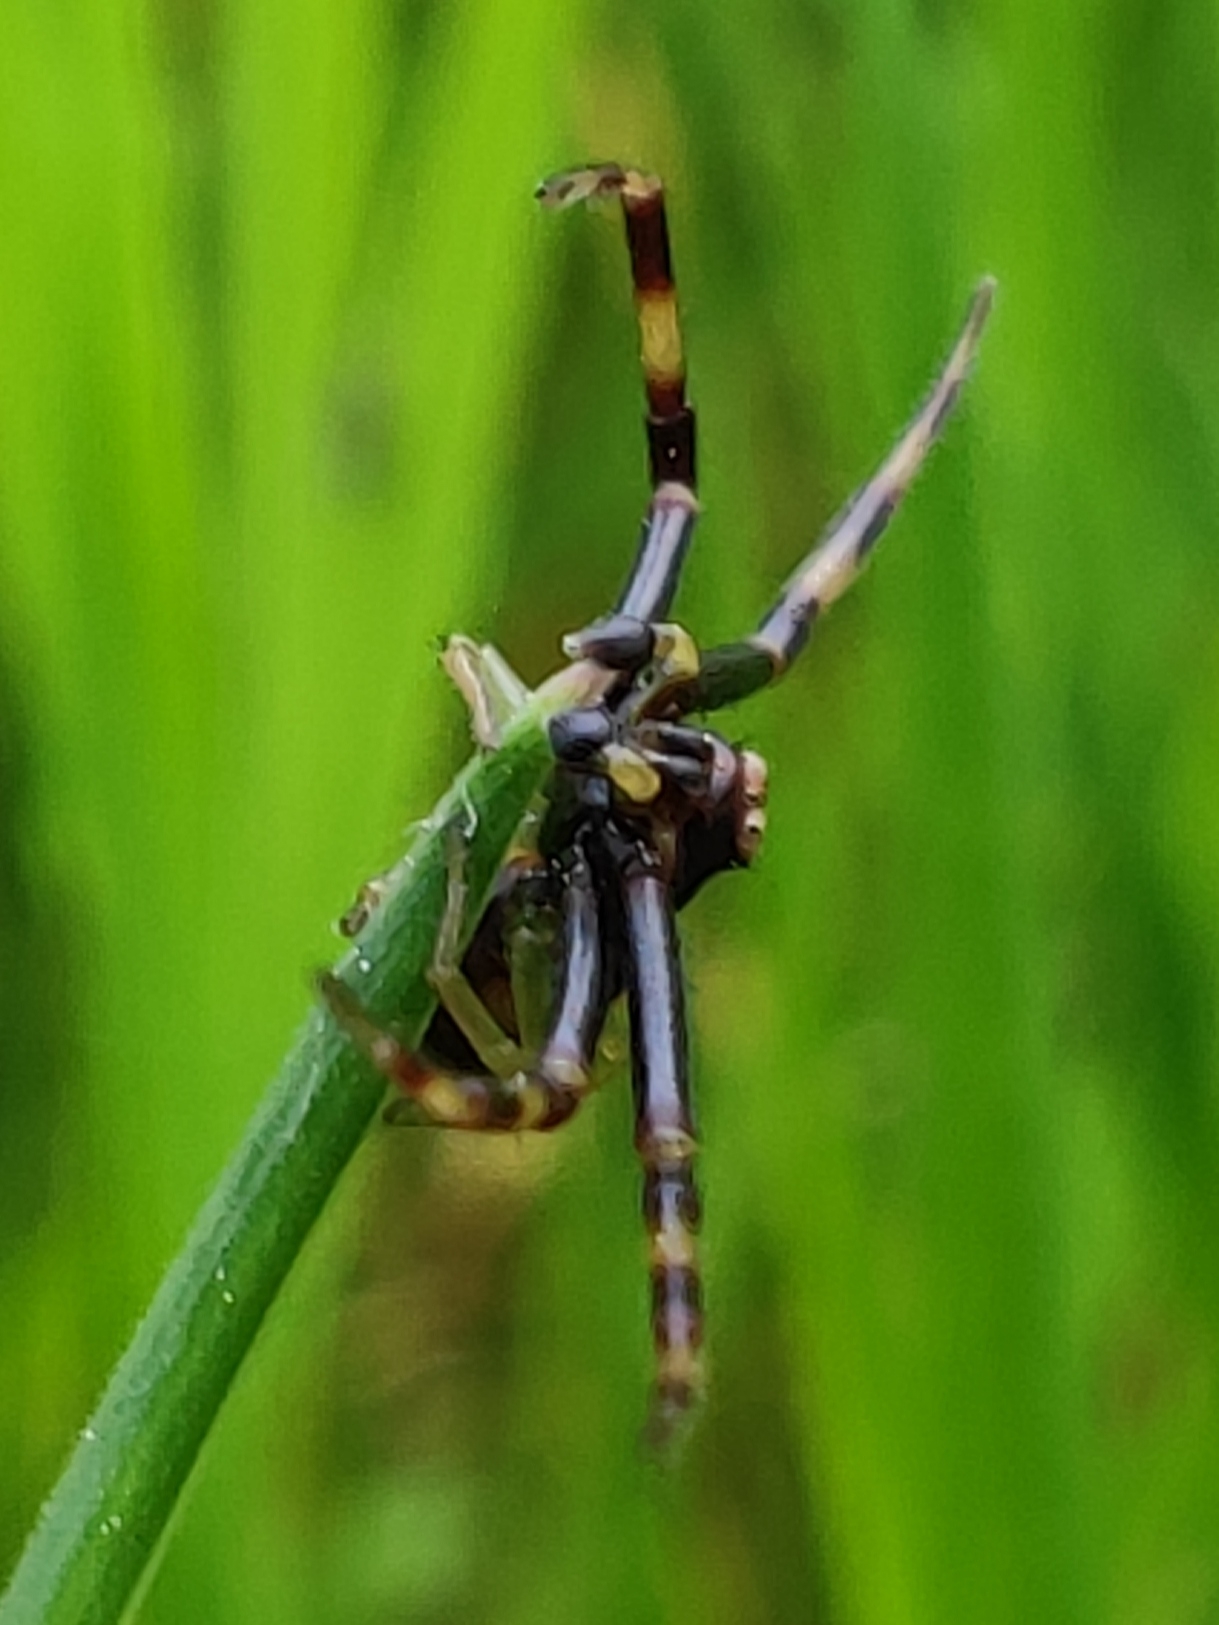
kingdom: Animalia
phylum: Arthropoda
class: Arachnida
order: Araneae
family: Thomisidae
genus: Misumena
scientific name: Misumena vatia
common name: Goldenrod crab spider
